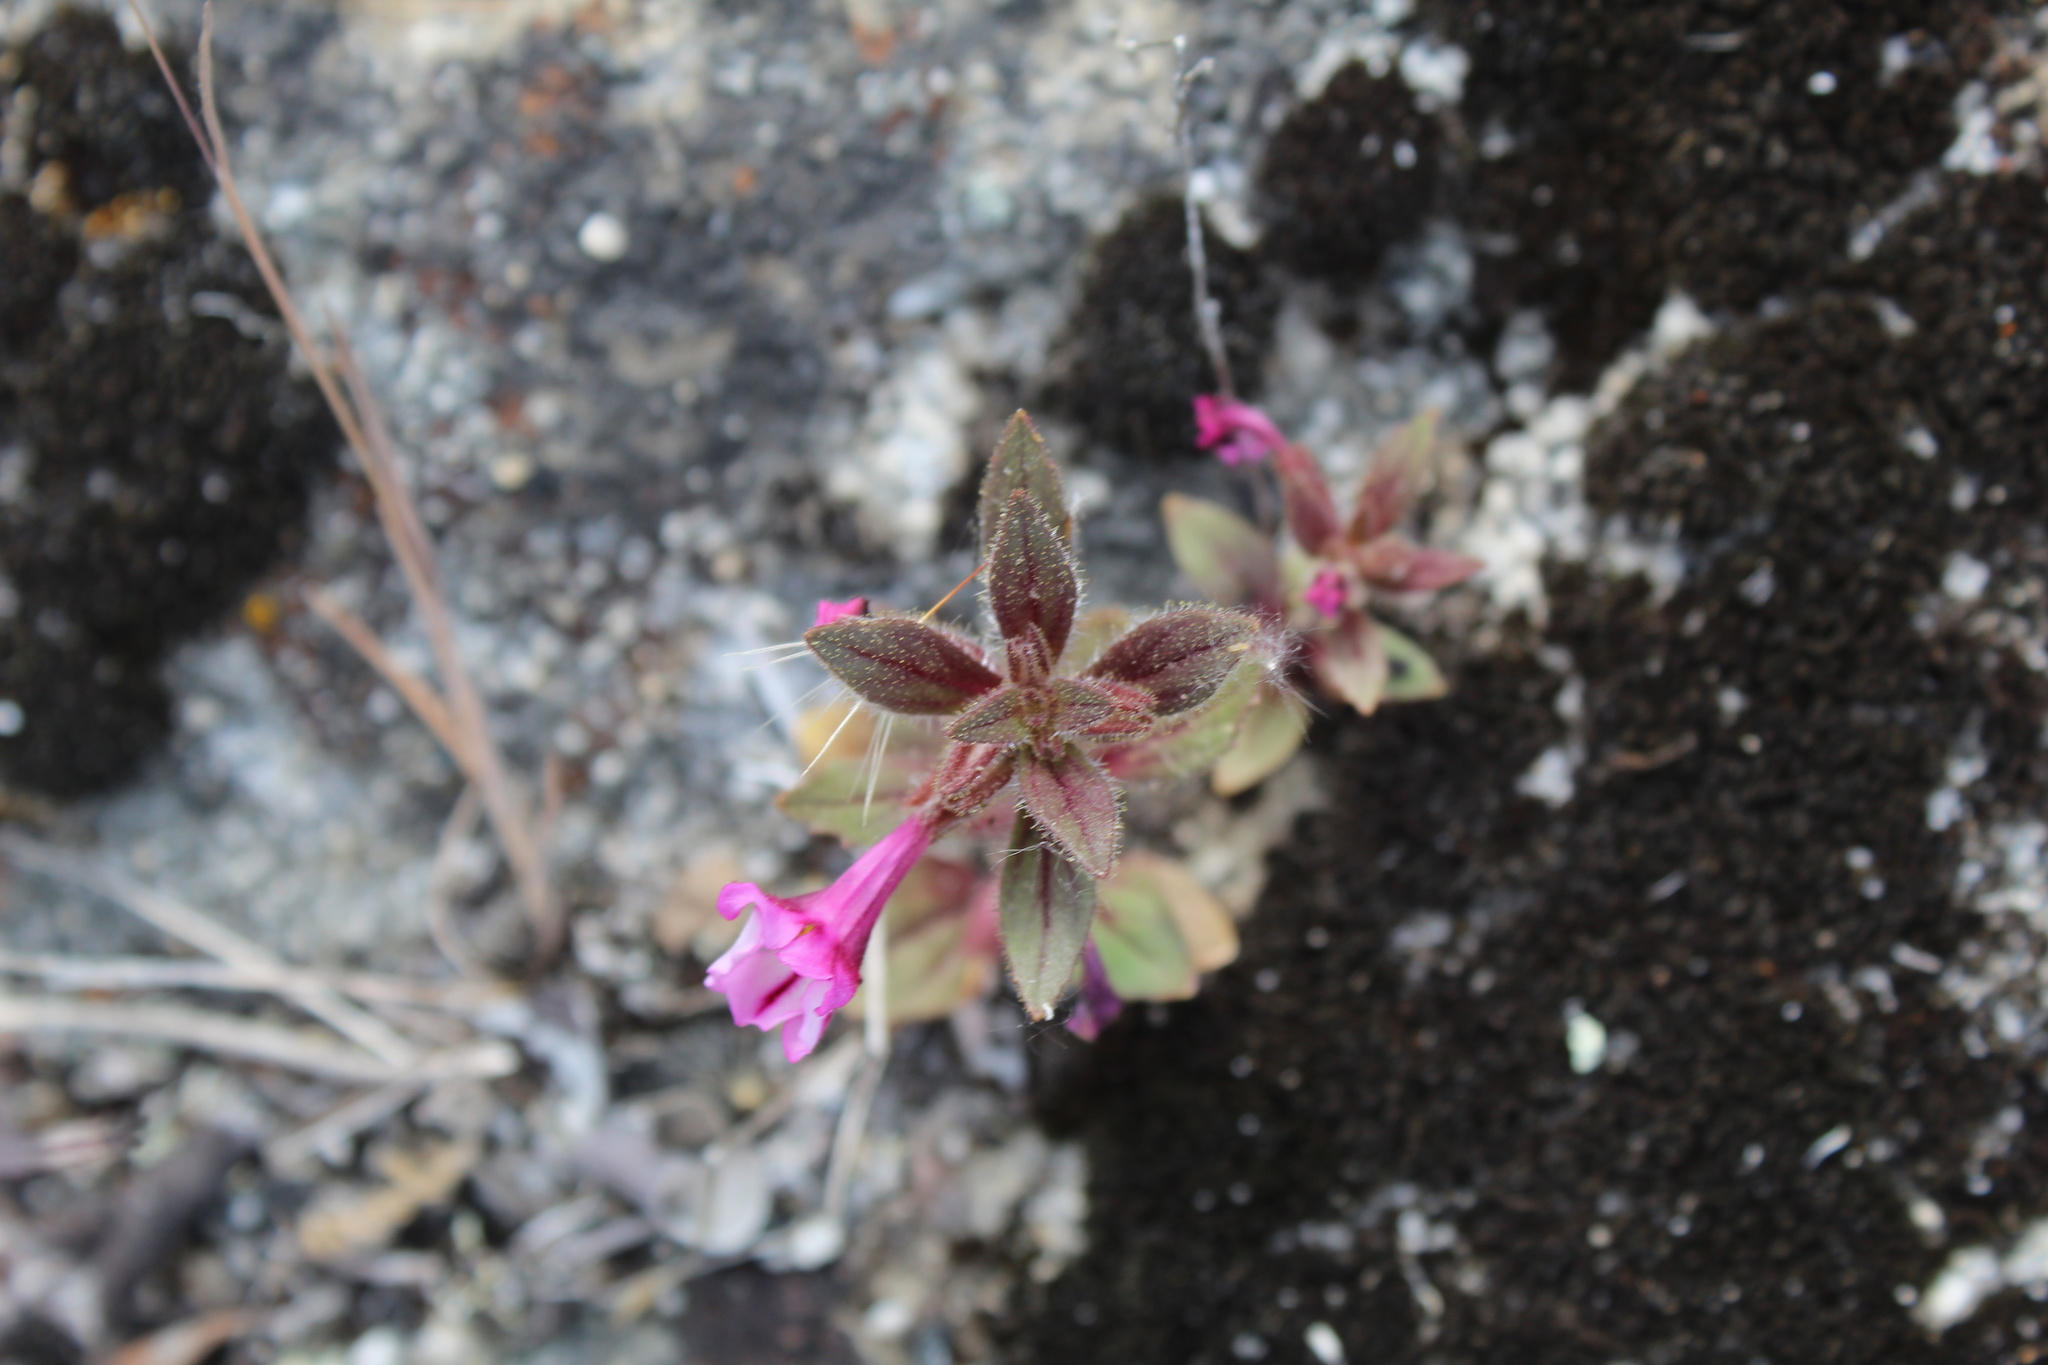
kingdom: Plantae
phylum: Tracheophyta
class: Magnoliopsida
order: Lamiales
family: Phrymaceae
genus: Diplacus
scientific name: Diplacus graniticola
